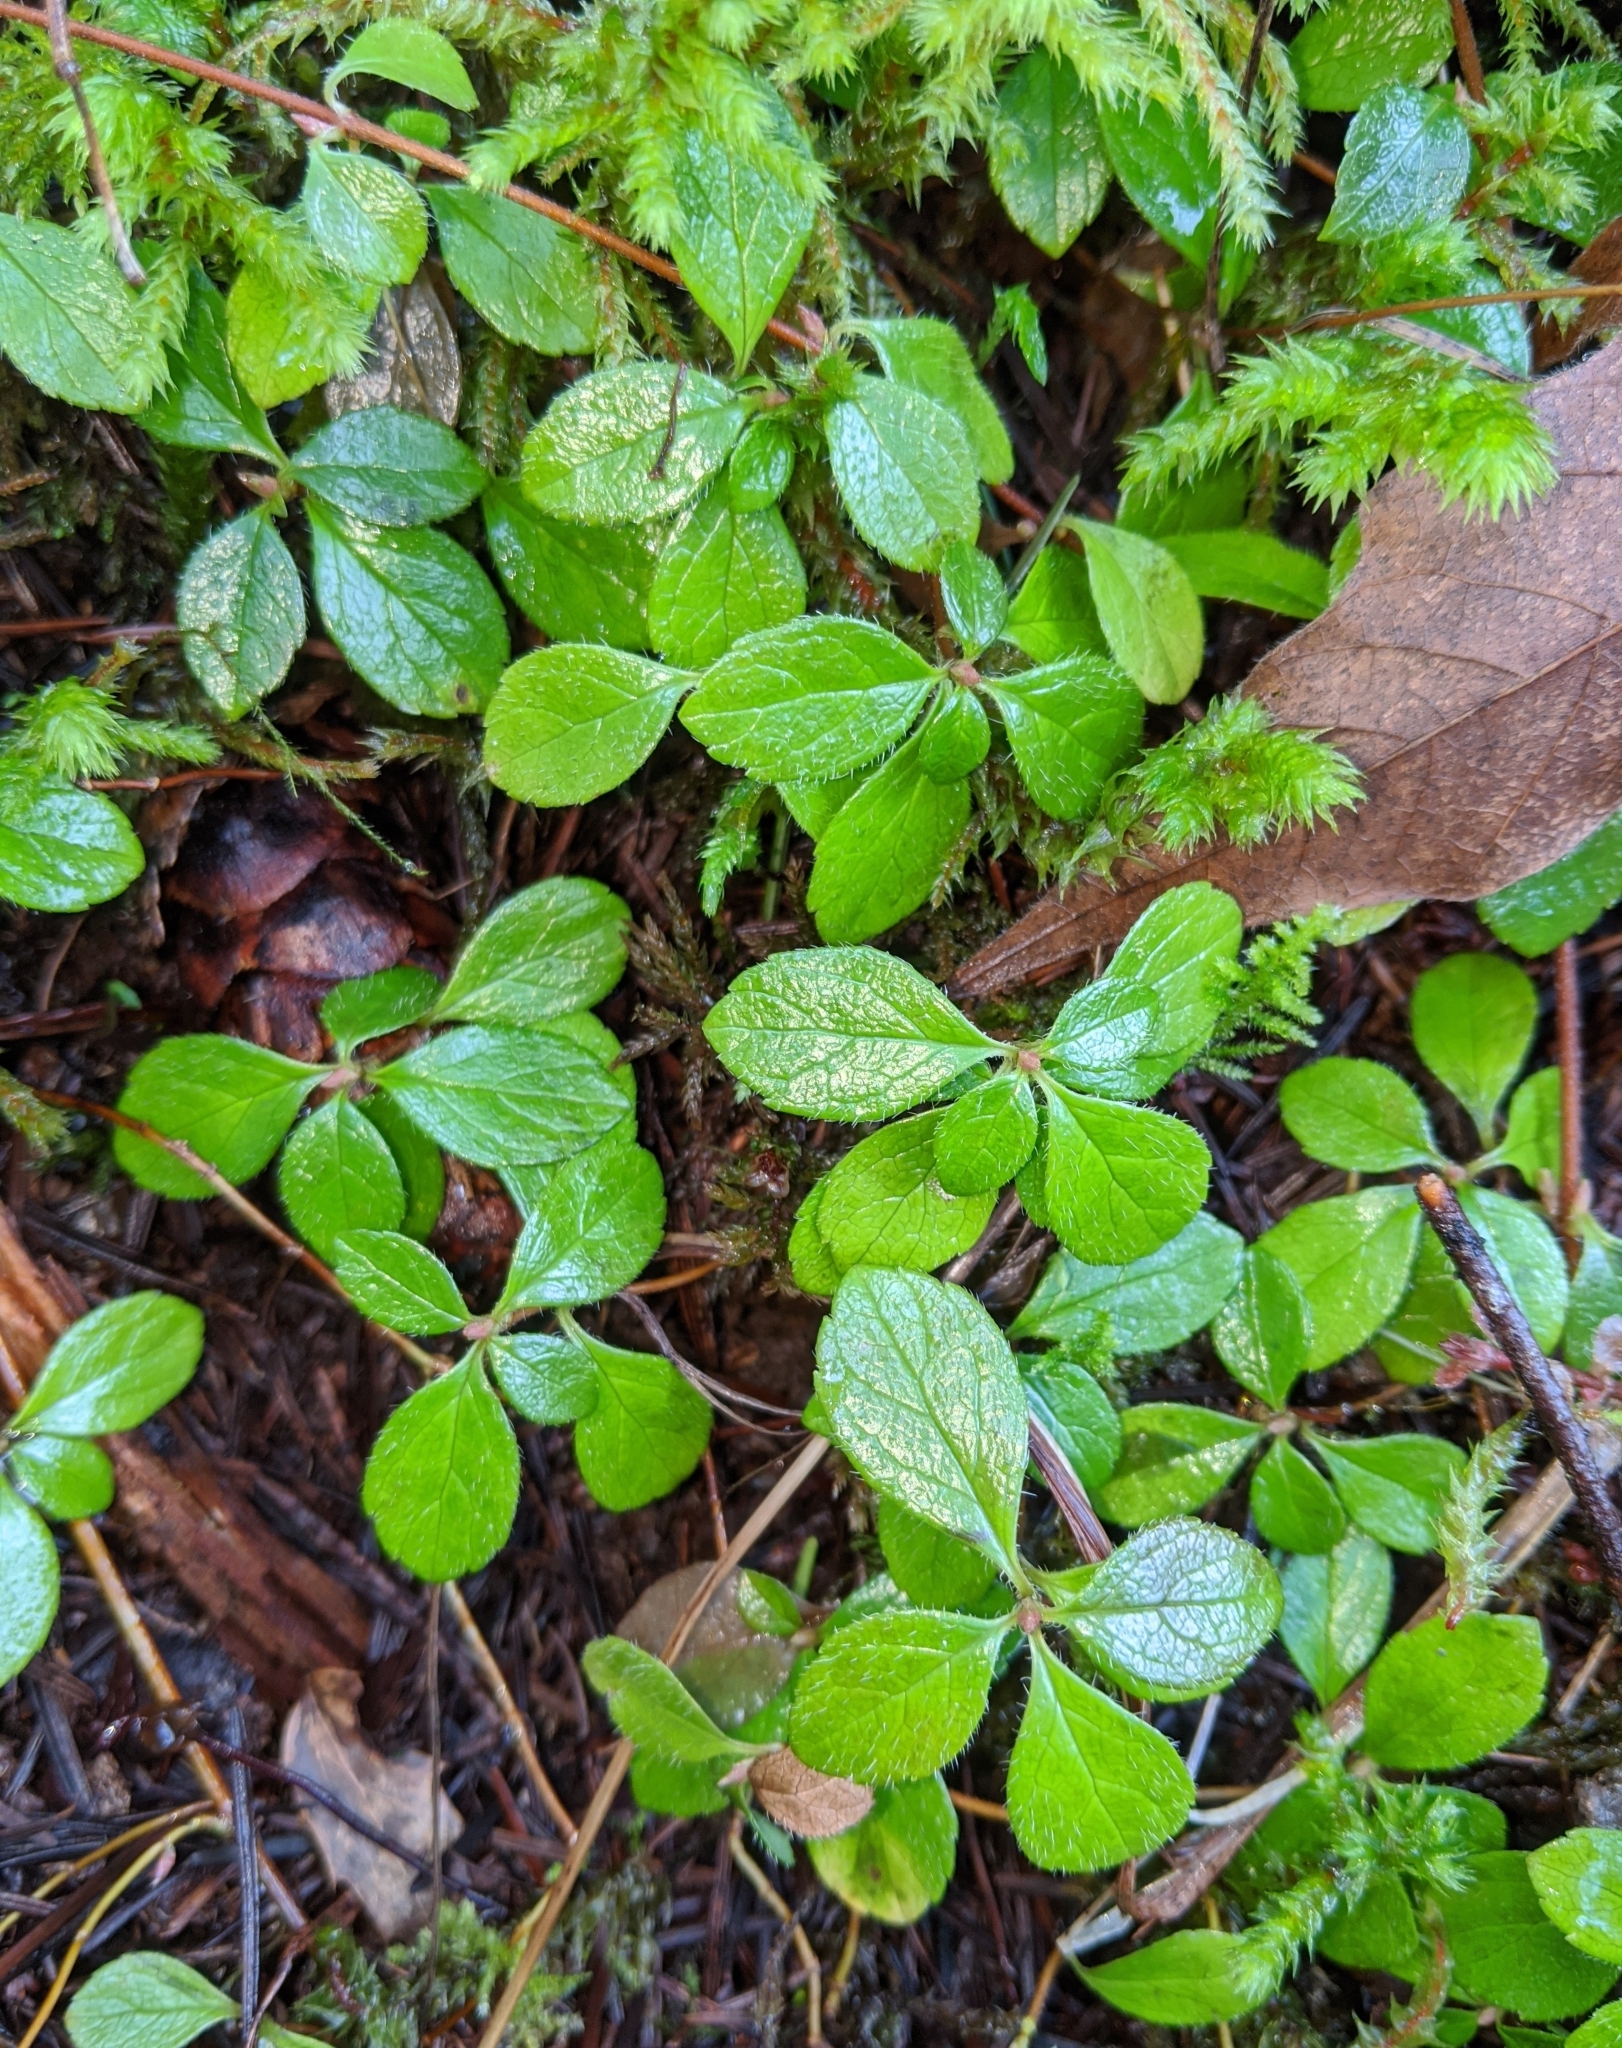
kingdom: Plantae
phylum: Tracheophyta
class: Magnoliopsida
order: Dipsacales
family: Caprifoliaceae
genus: Linnaea
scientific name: Linnaea borealis
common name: Twinflower
